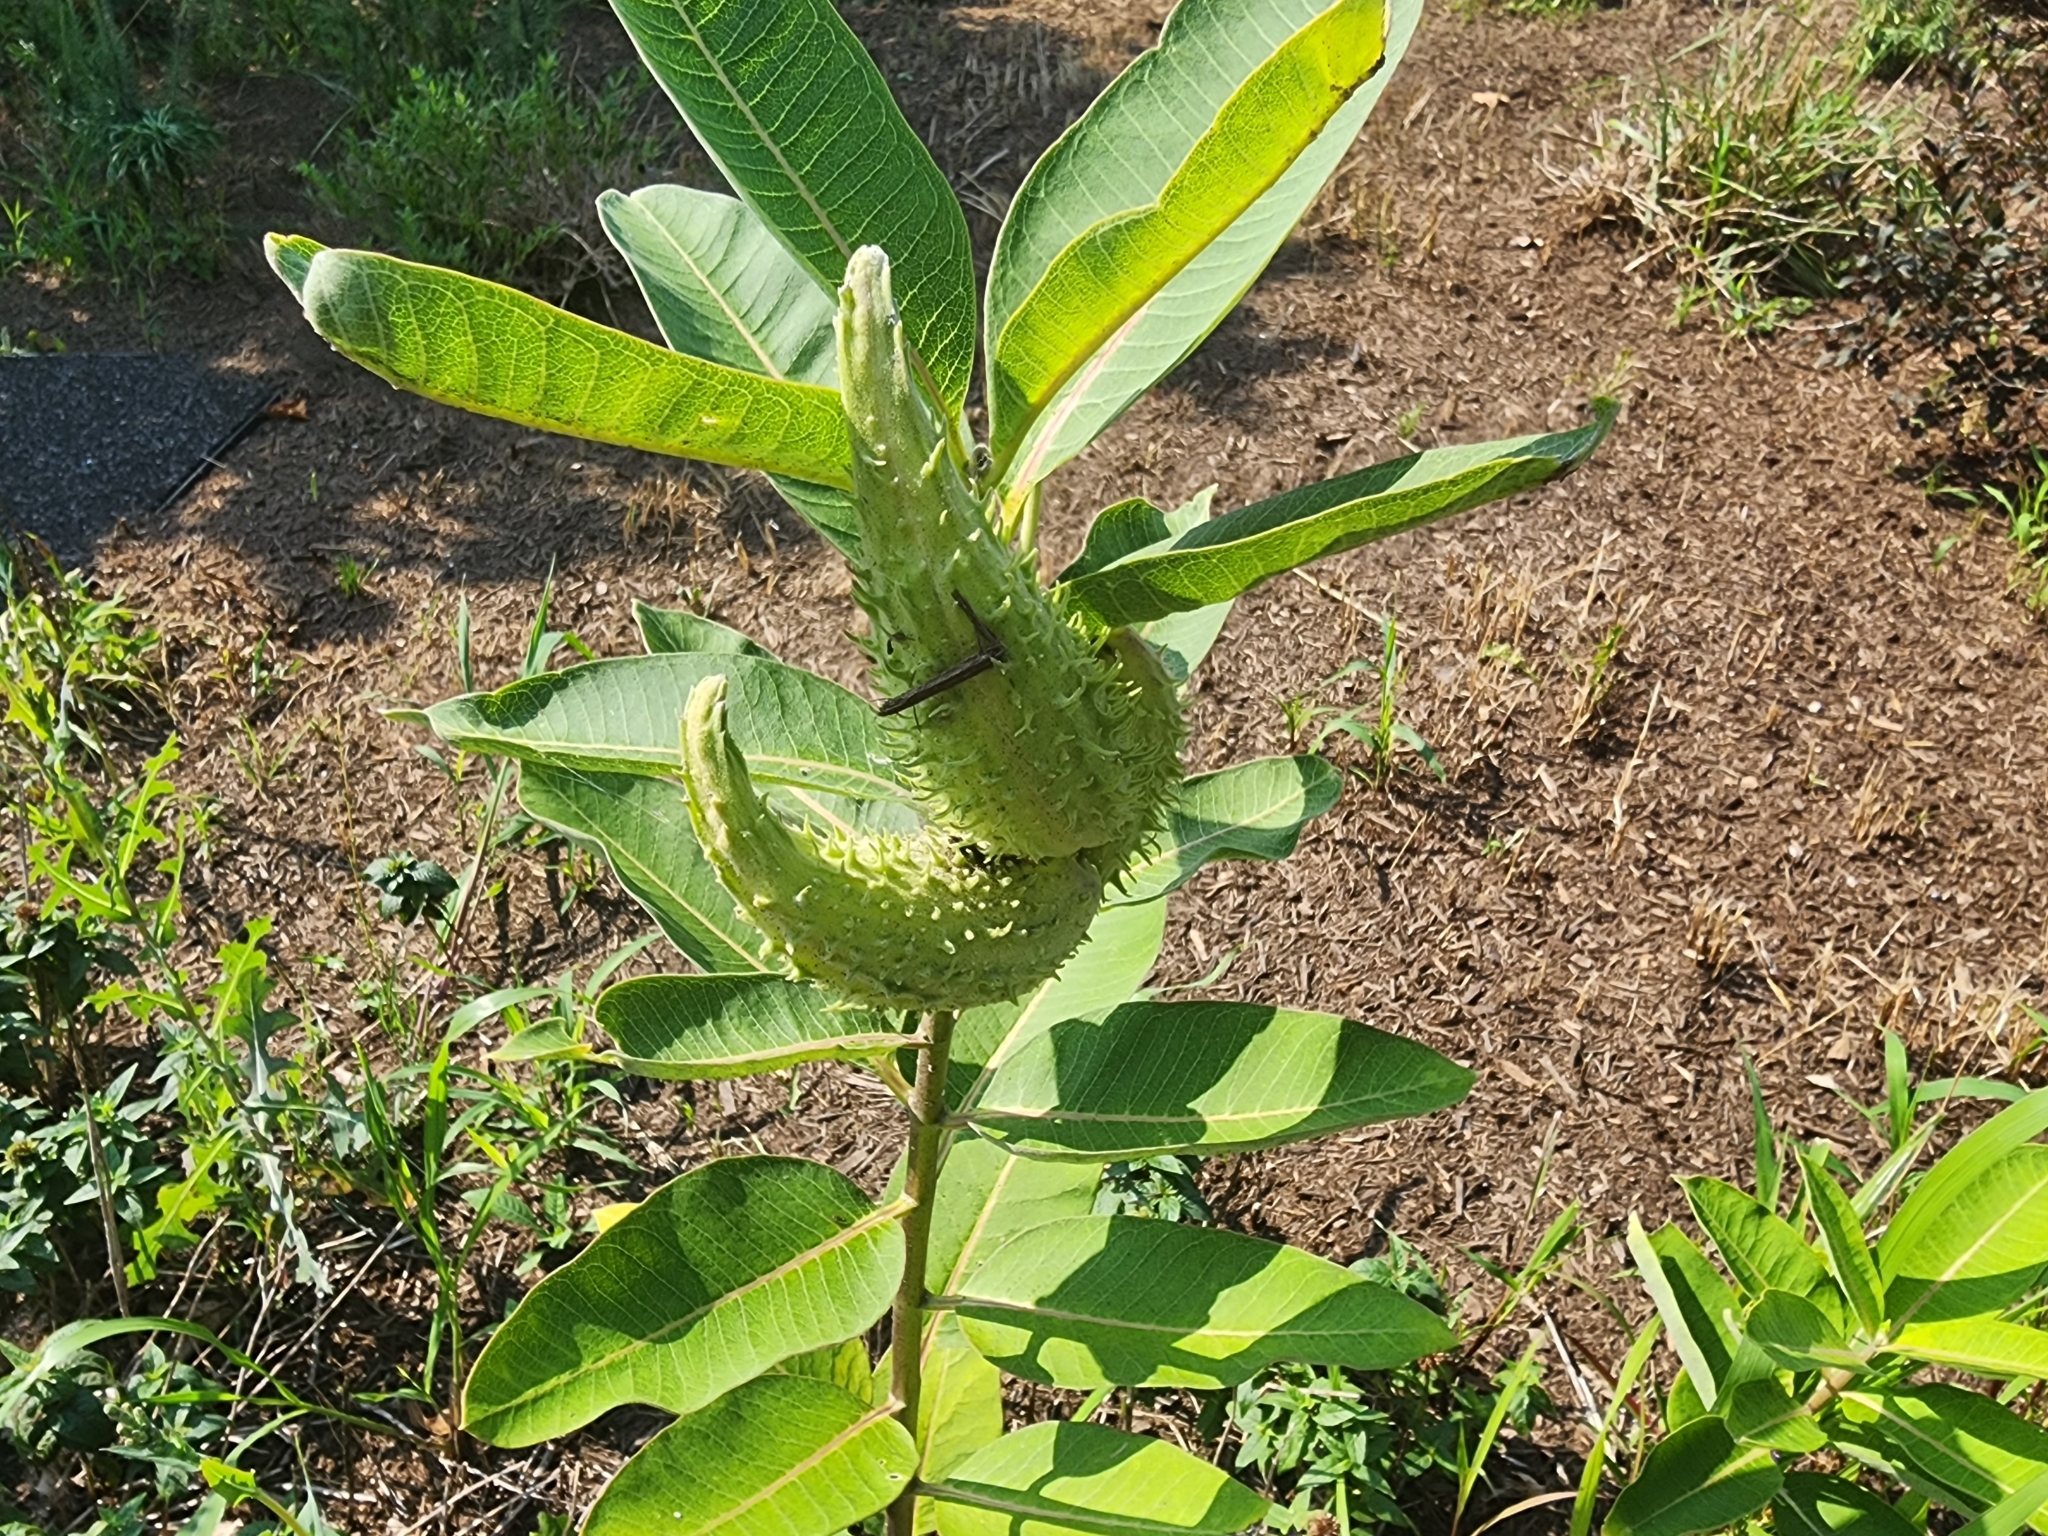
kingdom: Plantae
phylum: Tracheophyta
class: Magnoliopsida
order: Gentianales
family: Apocynaceae
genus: Asclepias
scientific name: Asclepias syriaca
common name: Common milkweed
